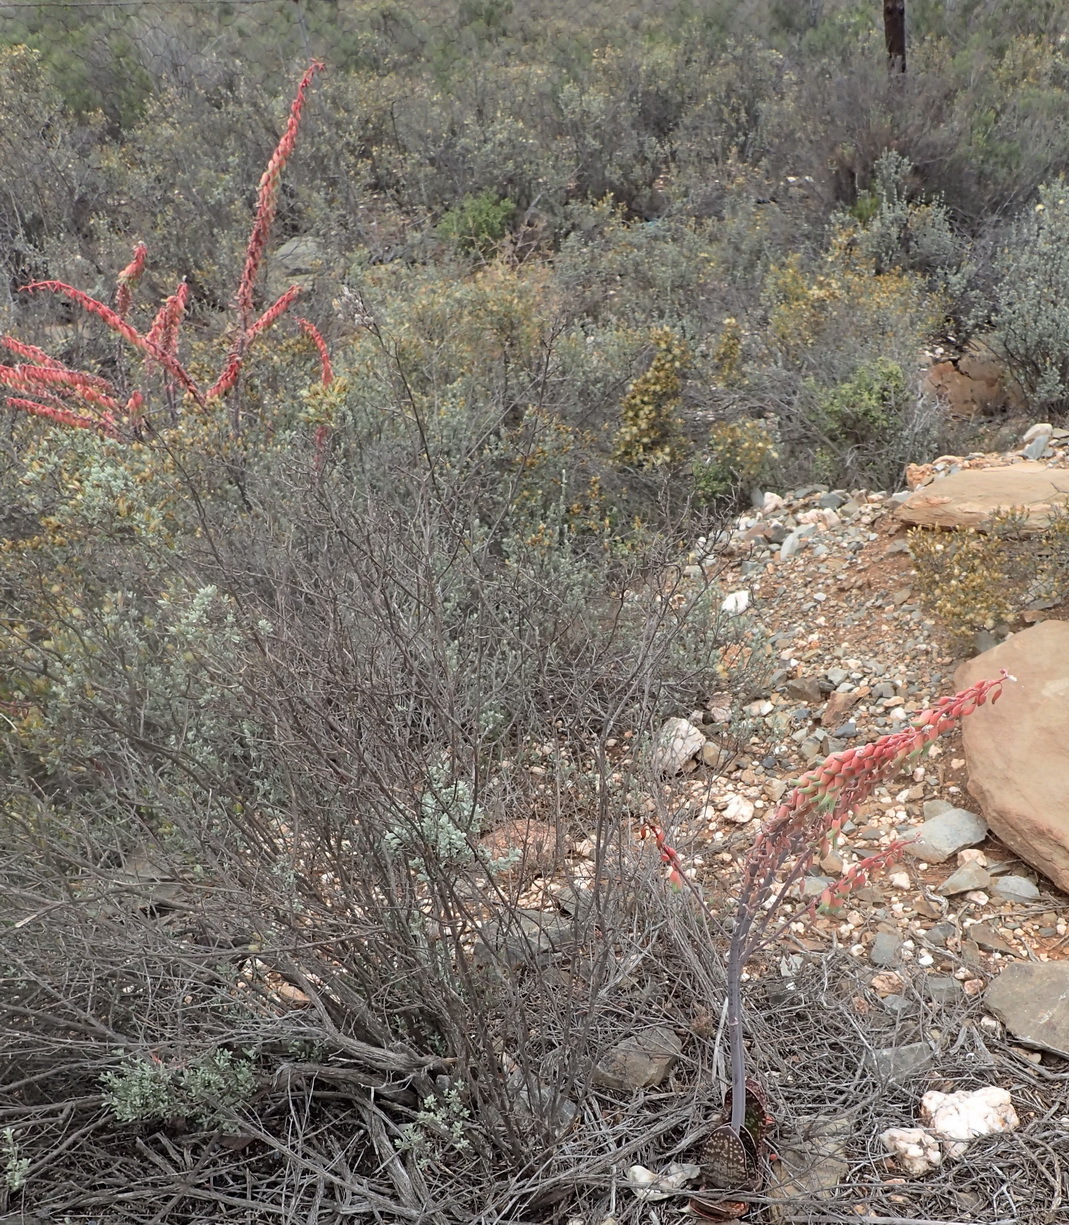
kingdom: Plantae
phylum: Tracheophyta
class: Liliopsida
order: Asparagales
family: Asphodelaceae
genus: Gasteria
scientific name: Gasteria brachyphylla
